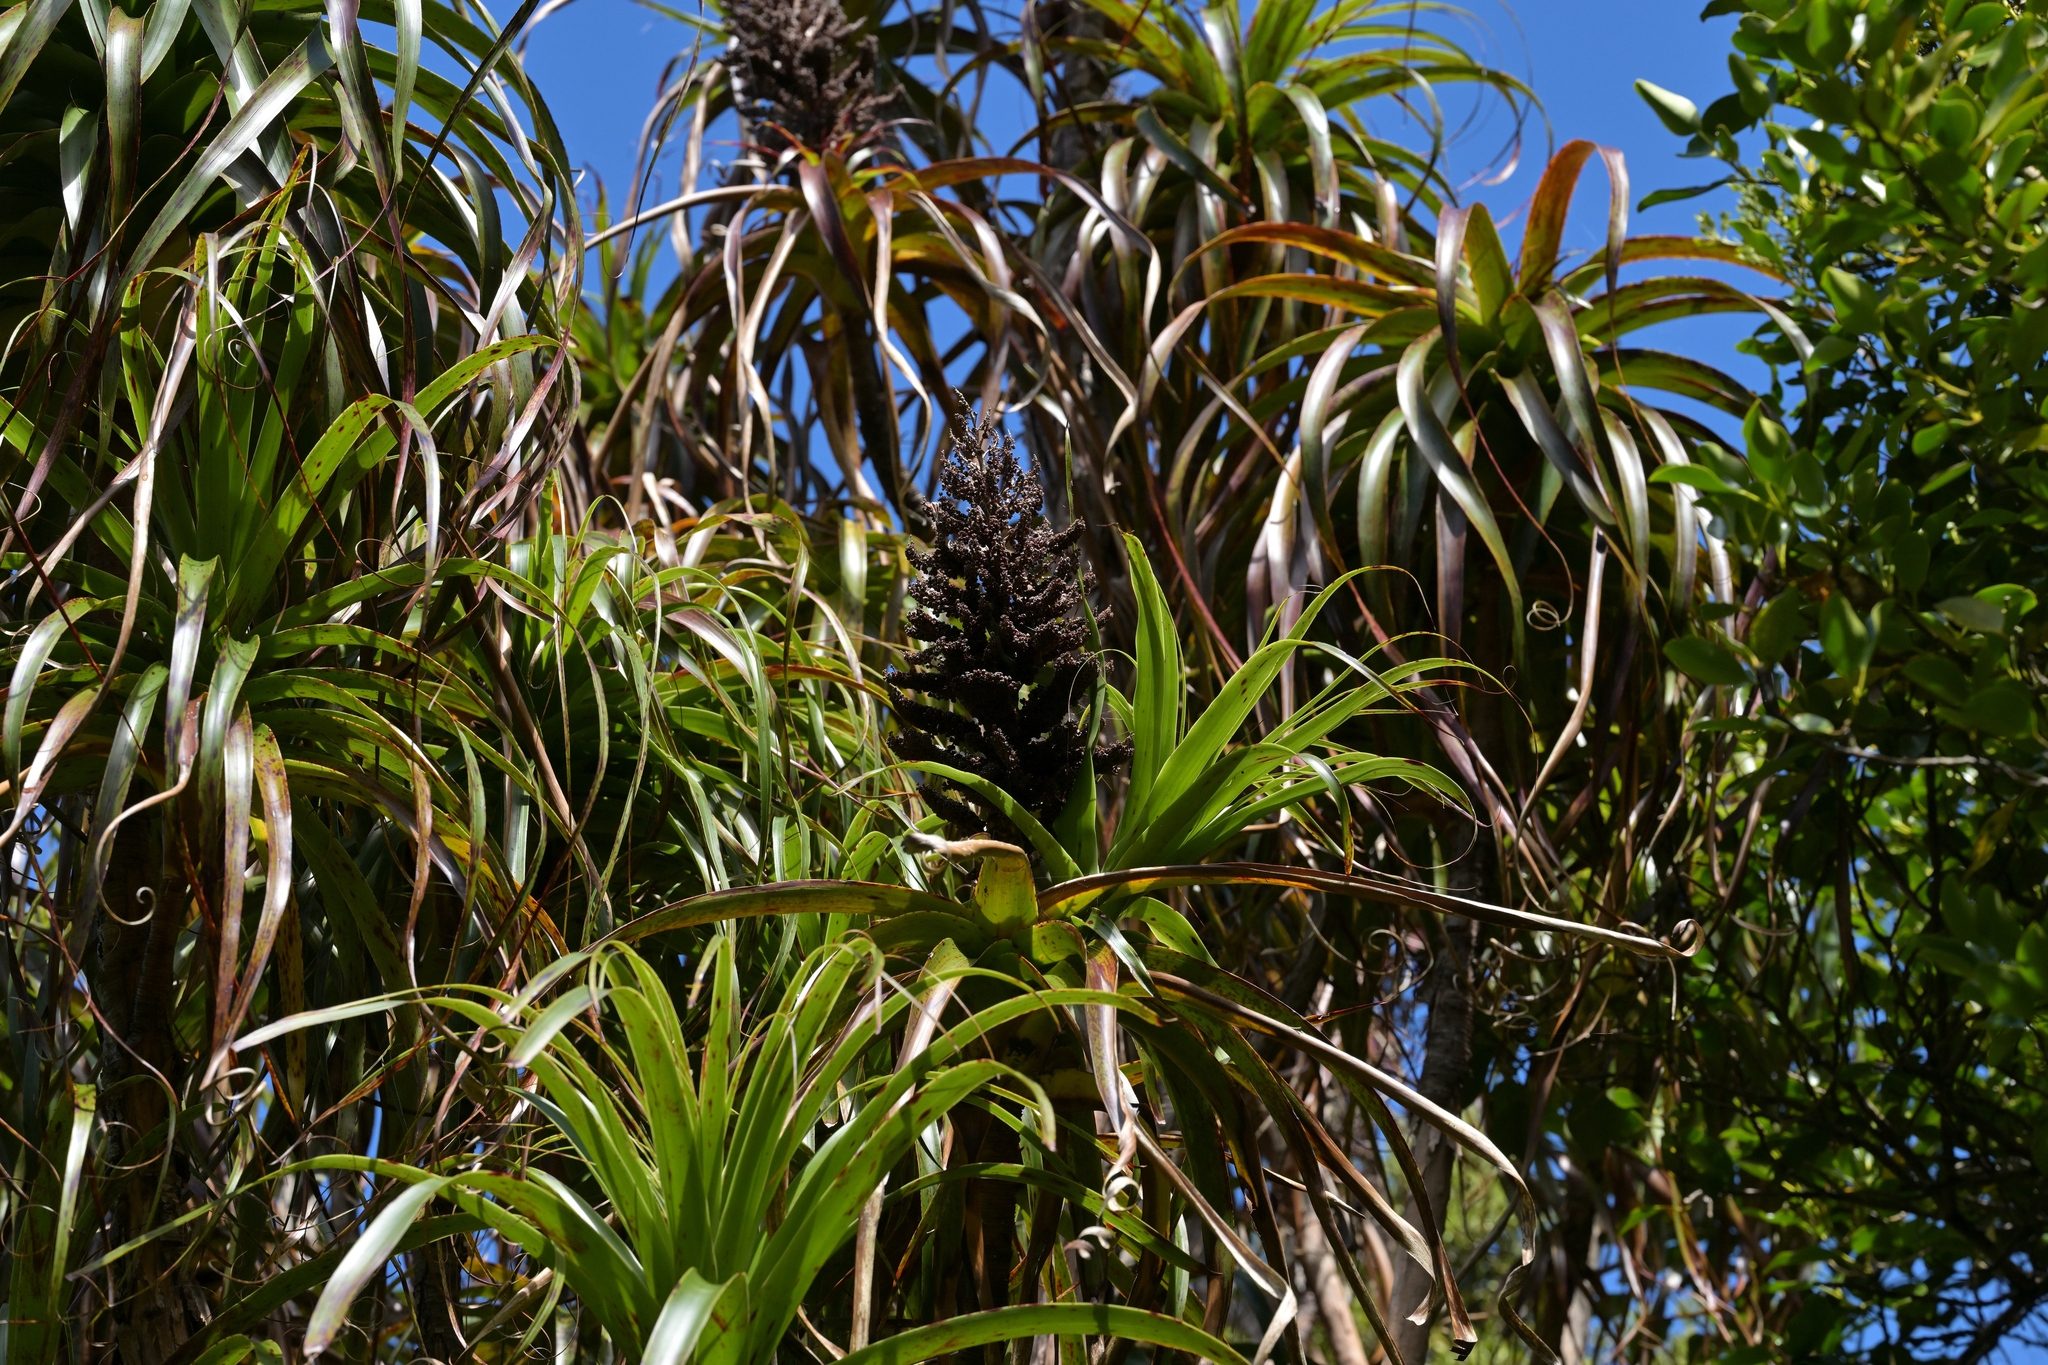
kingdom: Plantae
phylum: Tracheophyta
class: Magnoliopsida
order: Ericales
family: Ericaceae
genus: Dracophyllum
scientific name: Dracophyllum traversii
